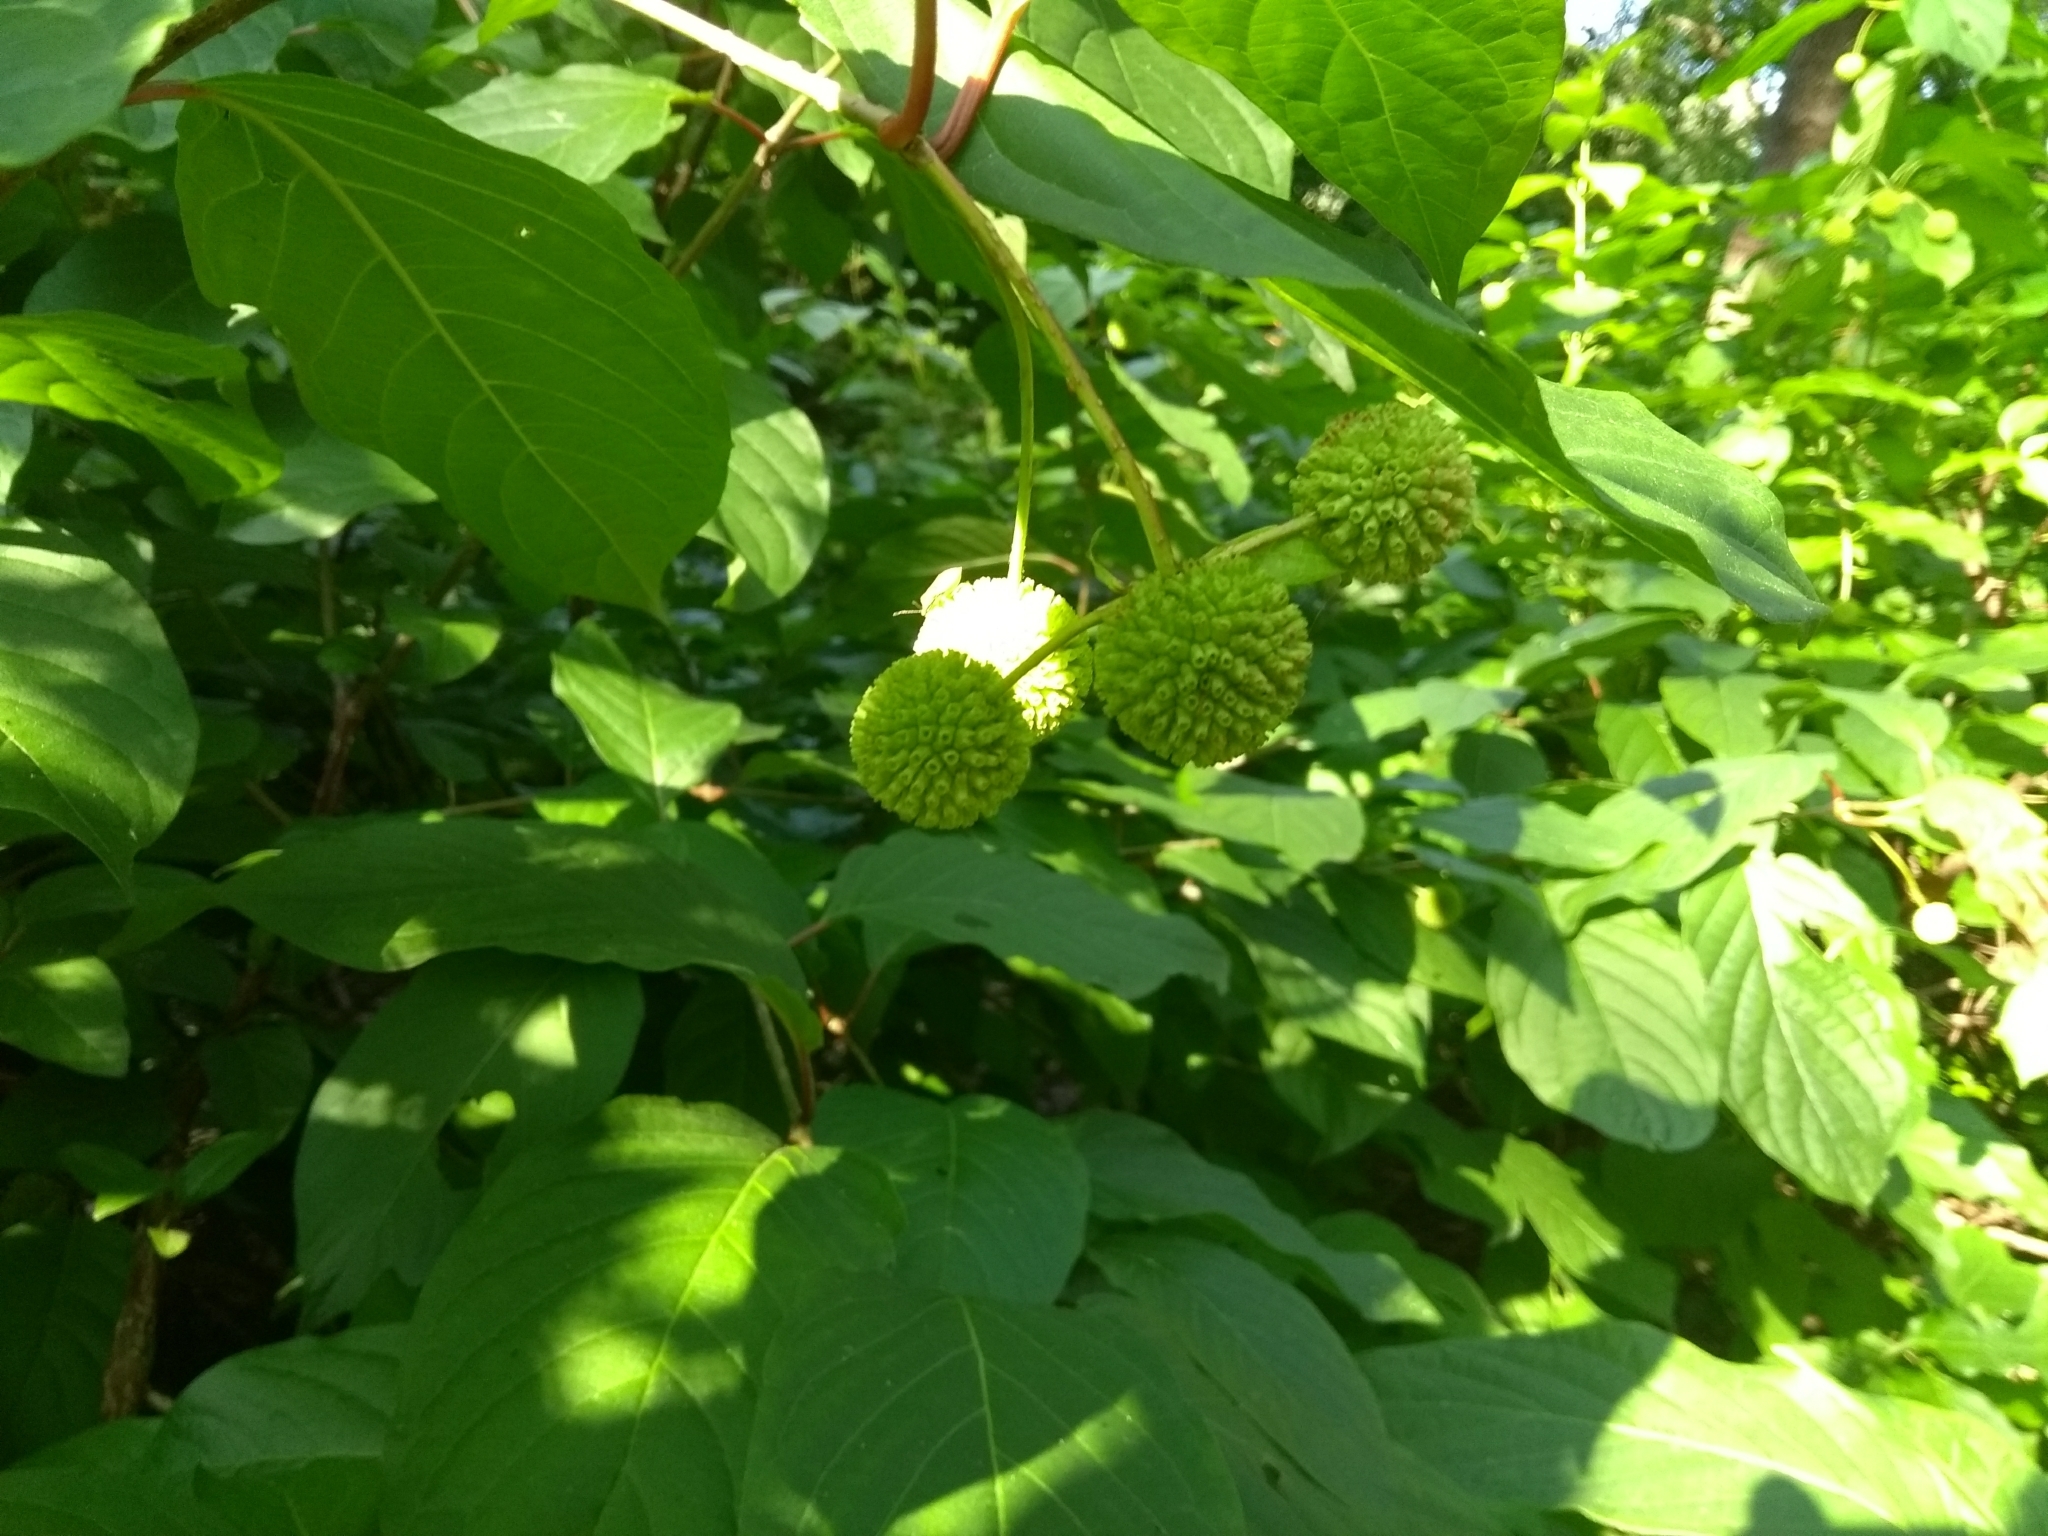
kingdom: Plantae
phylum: Tracheophyta
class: Magnoliopsida
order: Gentianales
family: Rubiaceae
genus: Cephalanthus
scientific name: Cephalanthus occidentalis
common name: Button-willow
